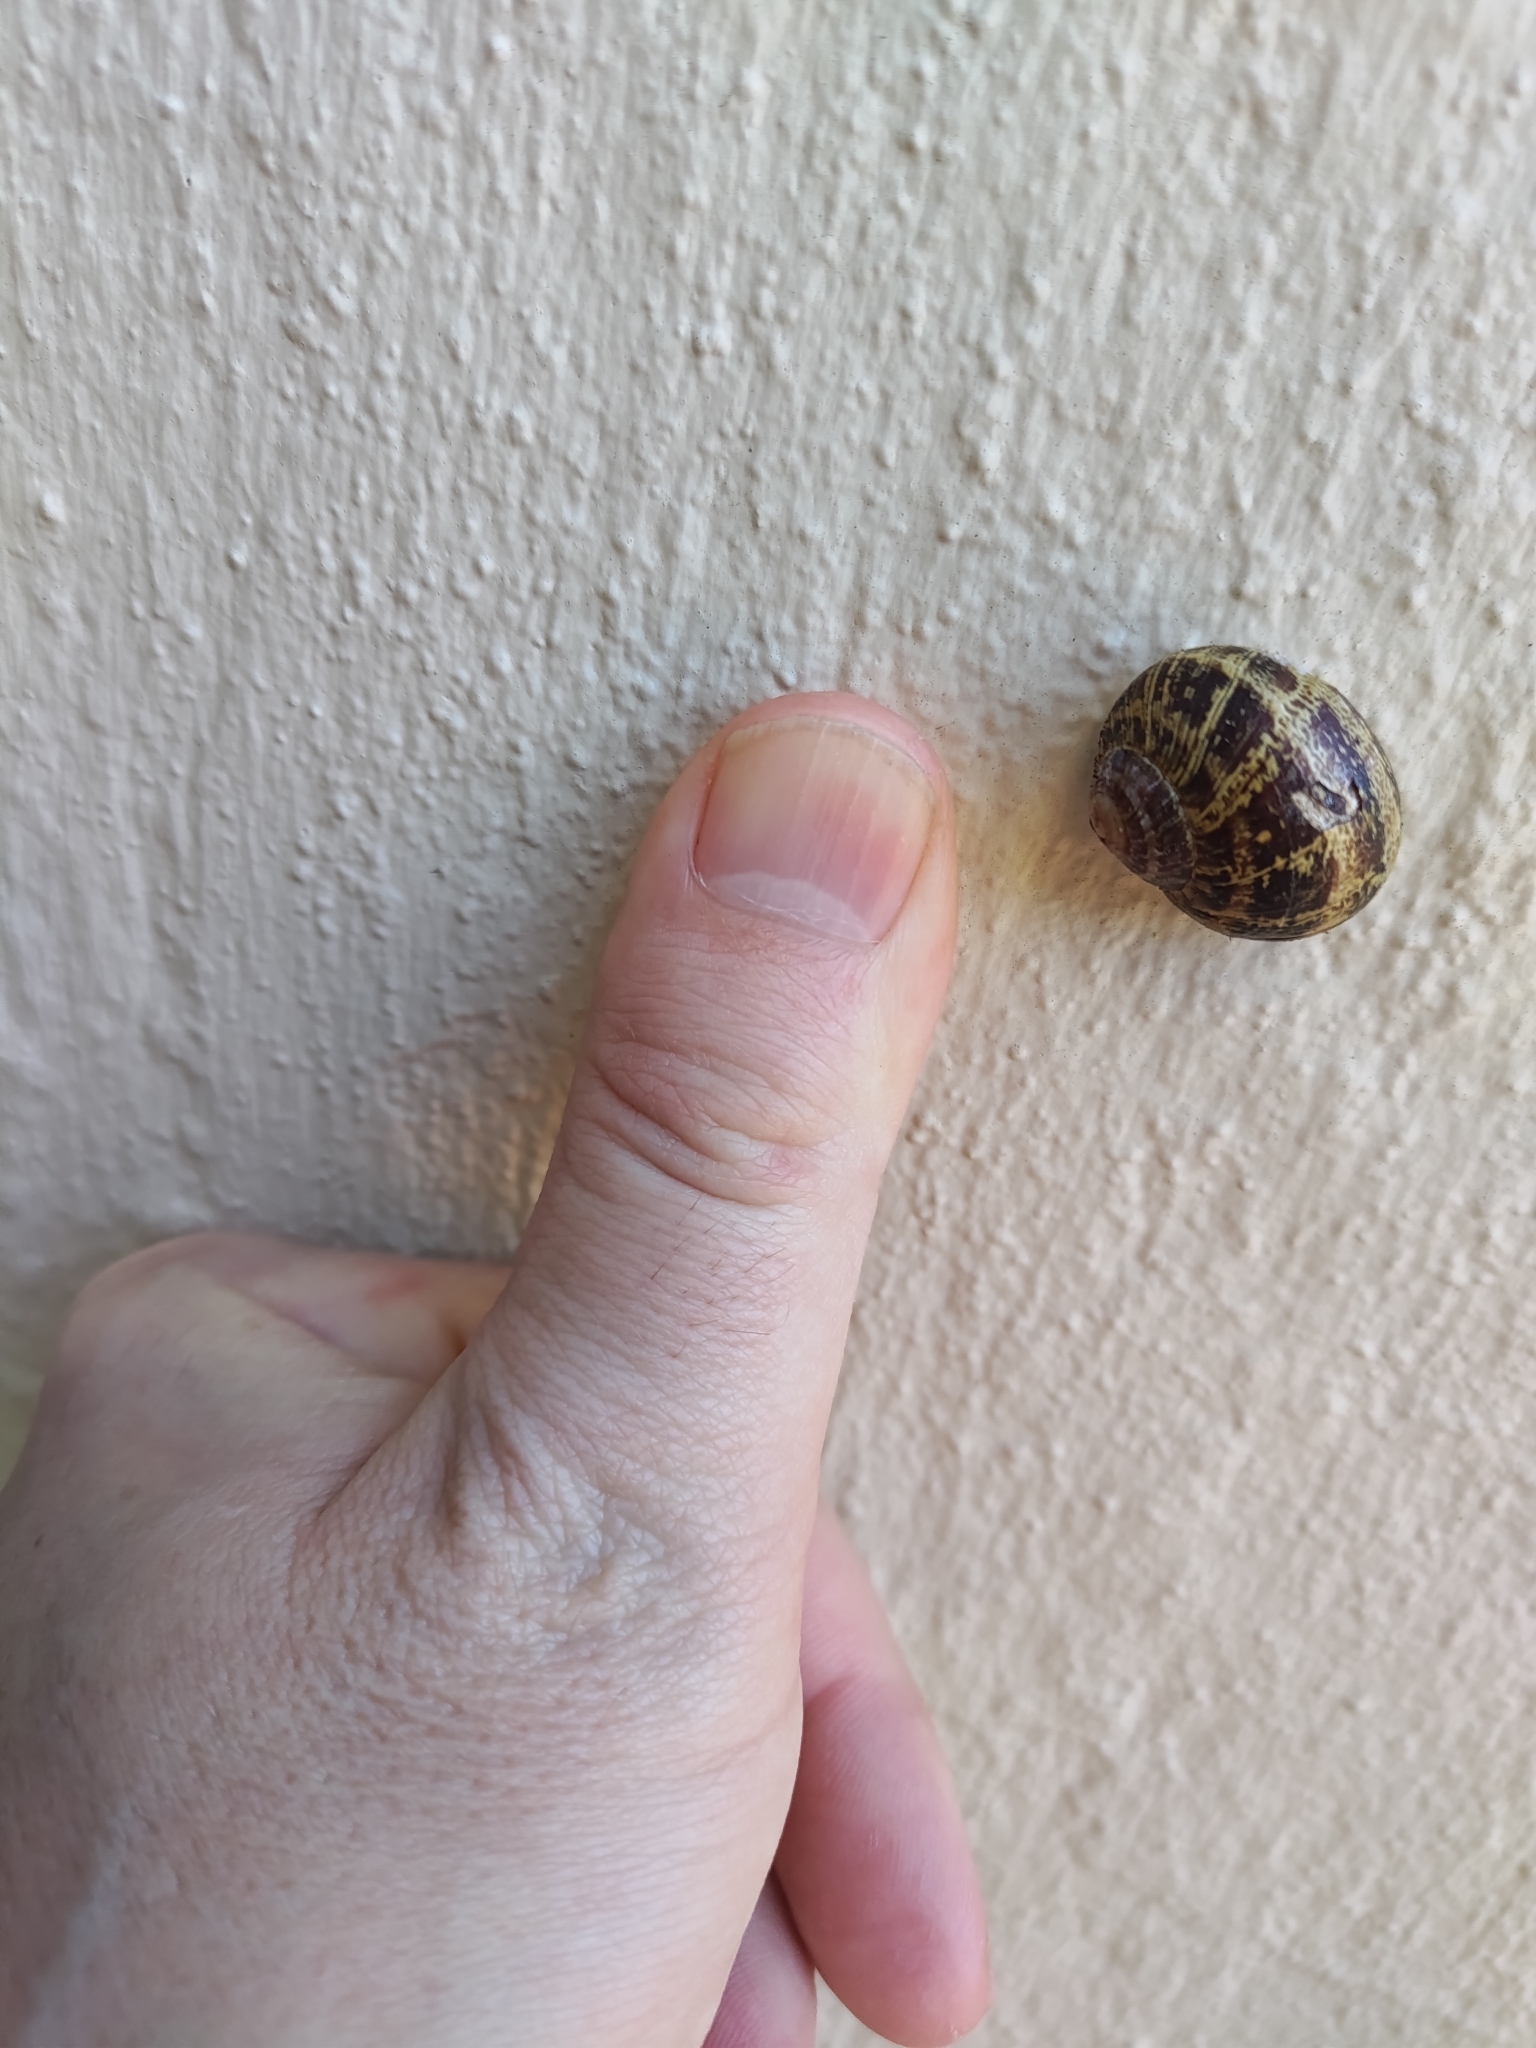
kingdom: Animalia
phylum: Mollusca
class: Gastropoda
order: Stylommatophora
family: Helicidae
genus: Cornu
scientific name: Cornu aspersum
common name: Brown garden snail
